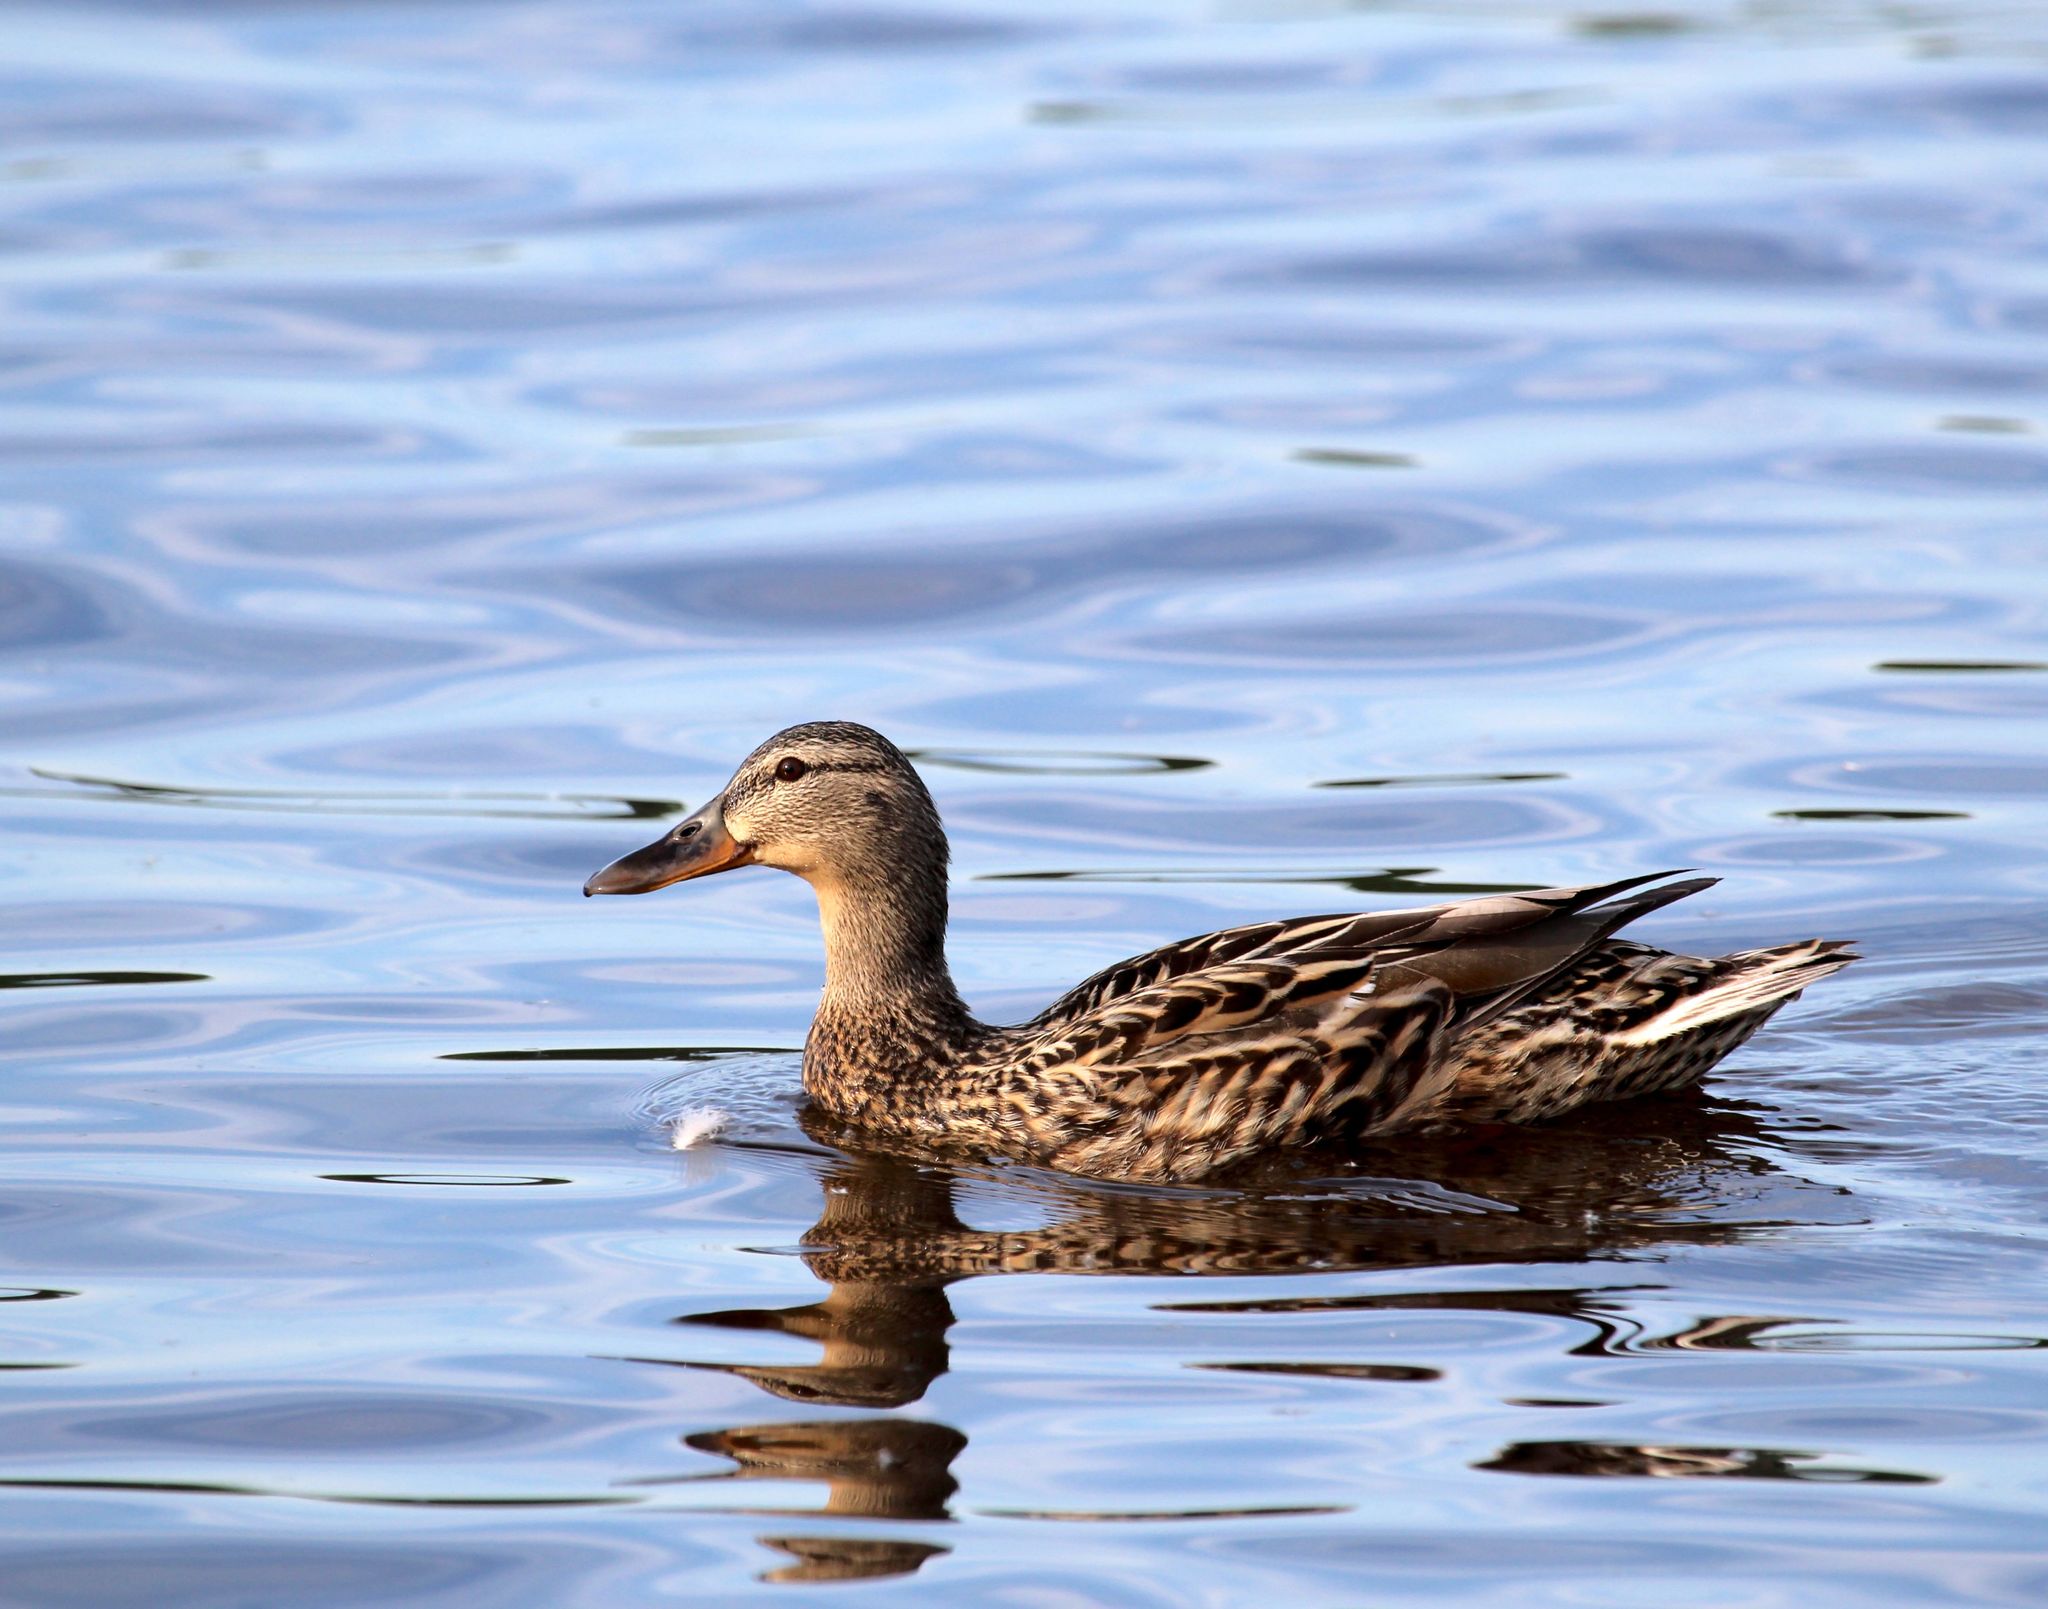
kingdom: Animalia
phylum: Chordata
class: Aves
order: Anseriformes
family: Anatidae
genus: Anas
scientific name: Anas platyrhynchos
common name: Mallard
